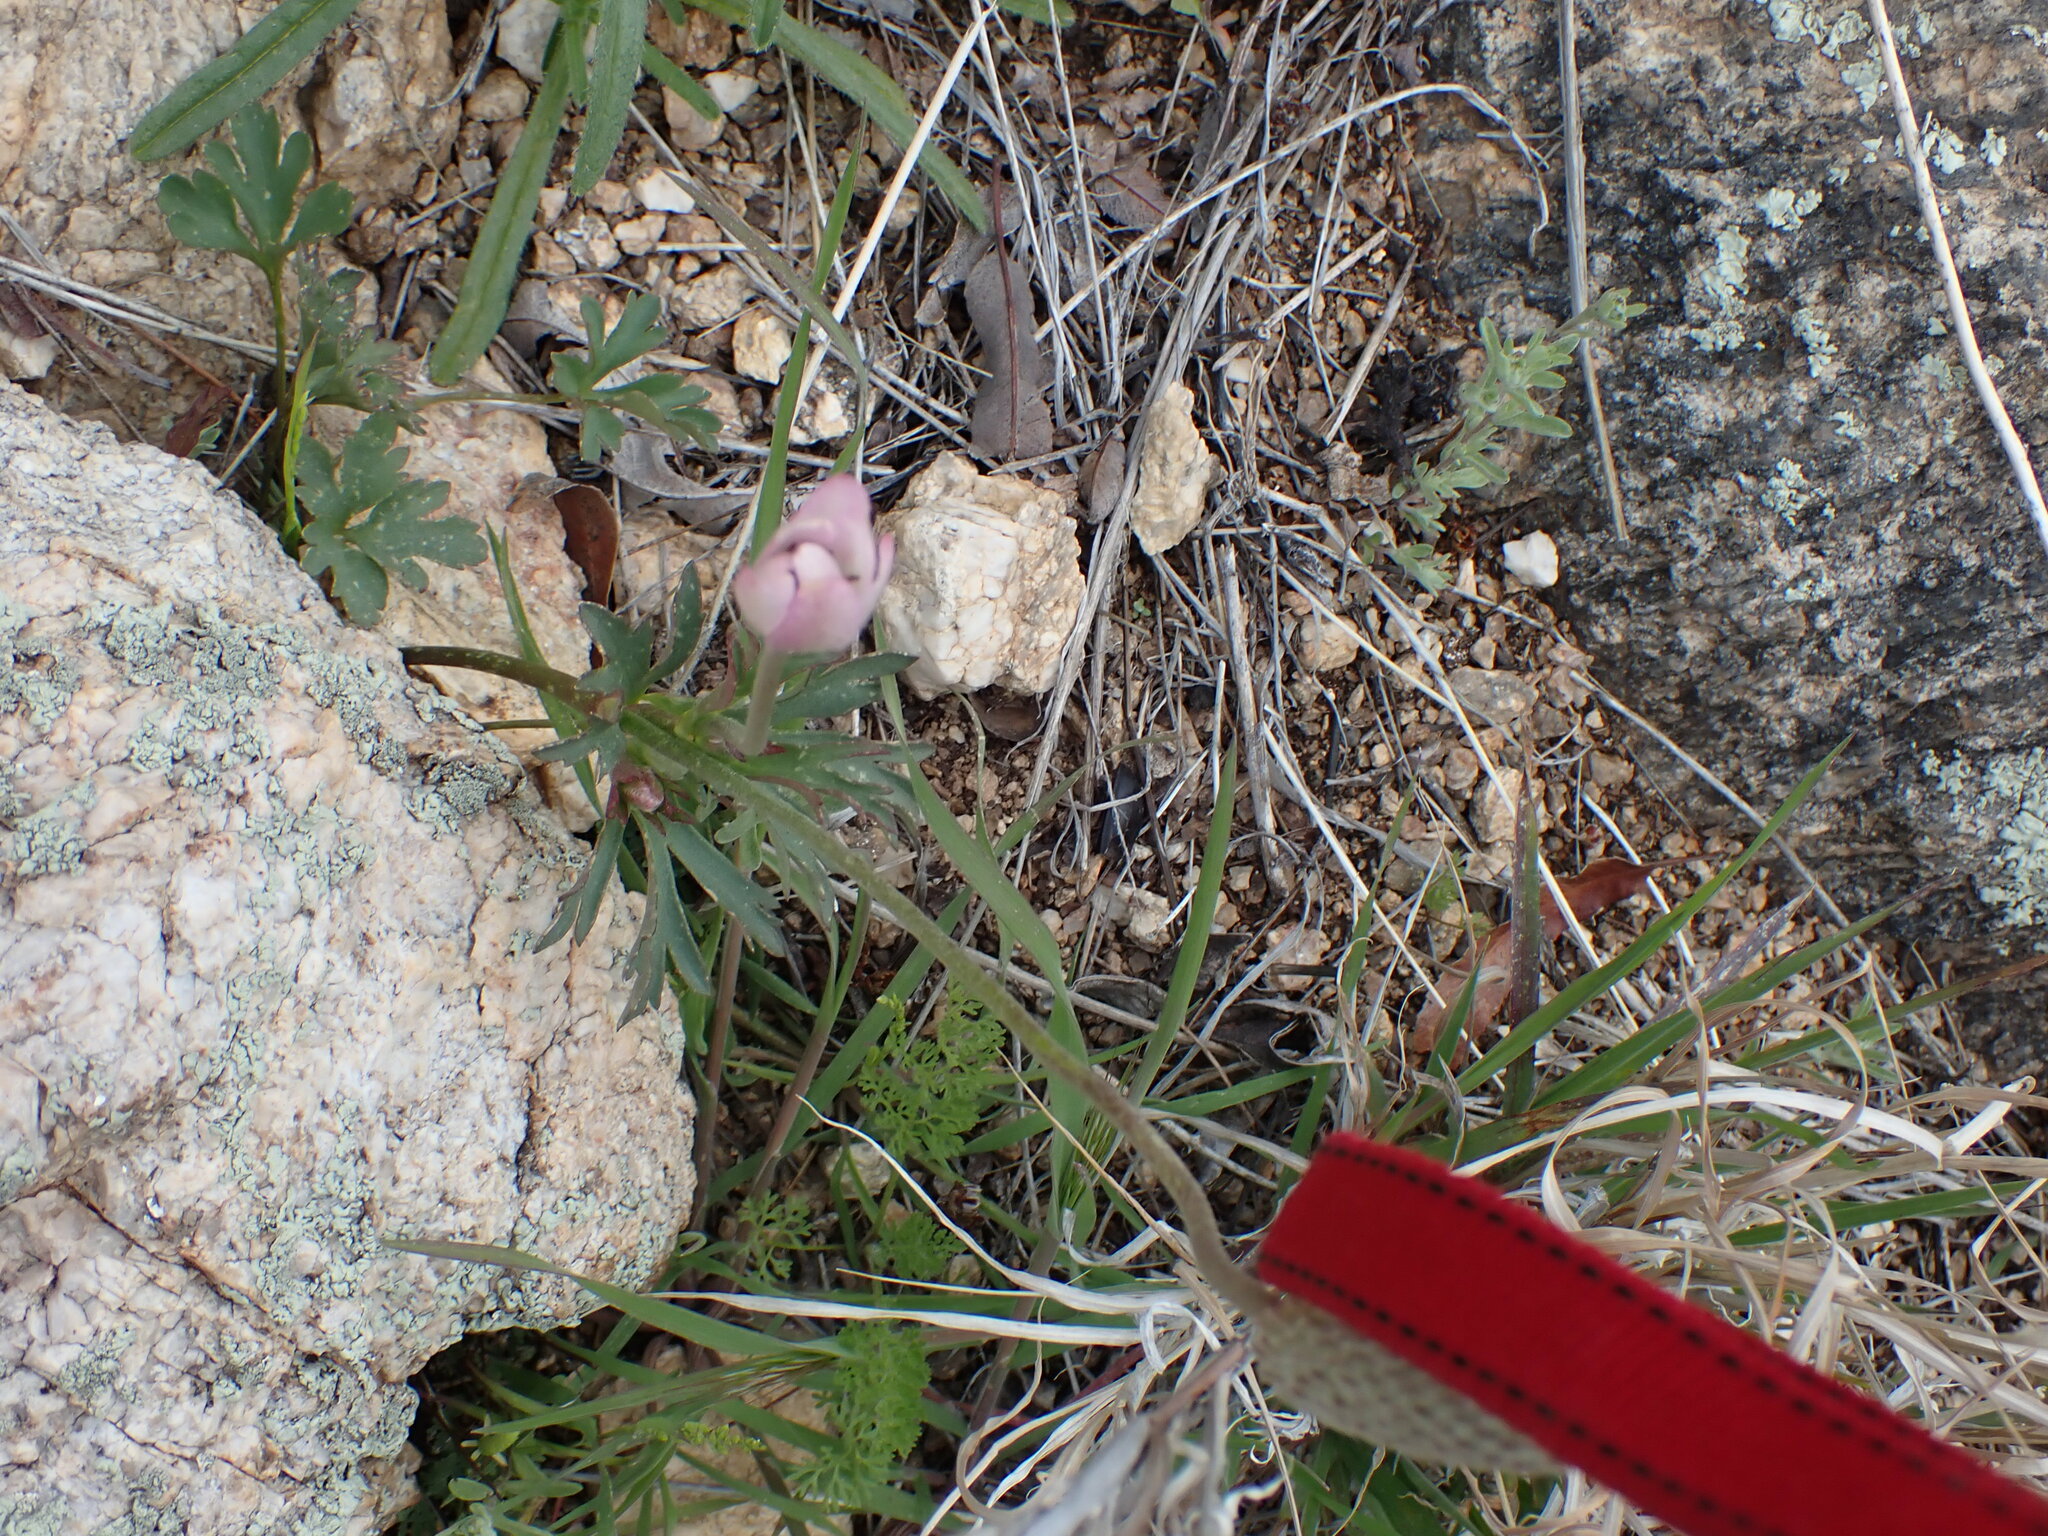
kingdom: Plantae
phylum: Tracheophyta
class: Magnoliopsida
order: Ranunculales
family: Ranunculaceae
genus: Anemone
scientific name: Anemone tuberosa
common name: Desert anemone
